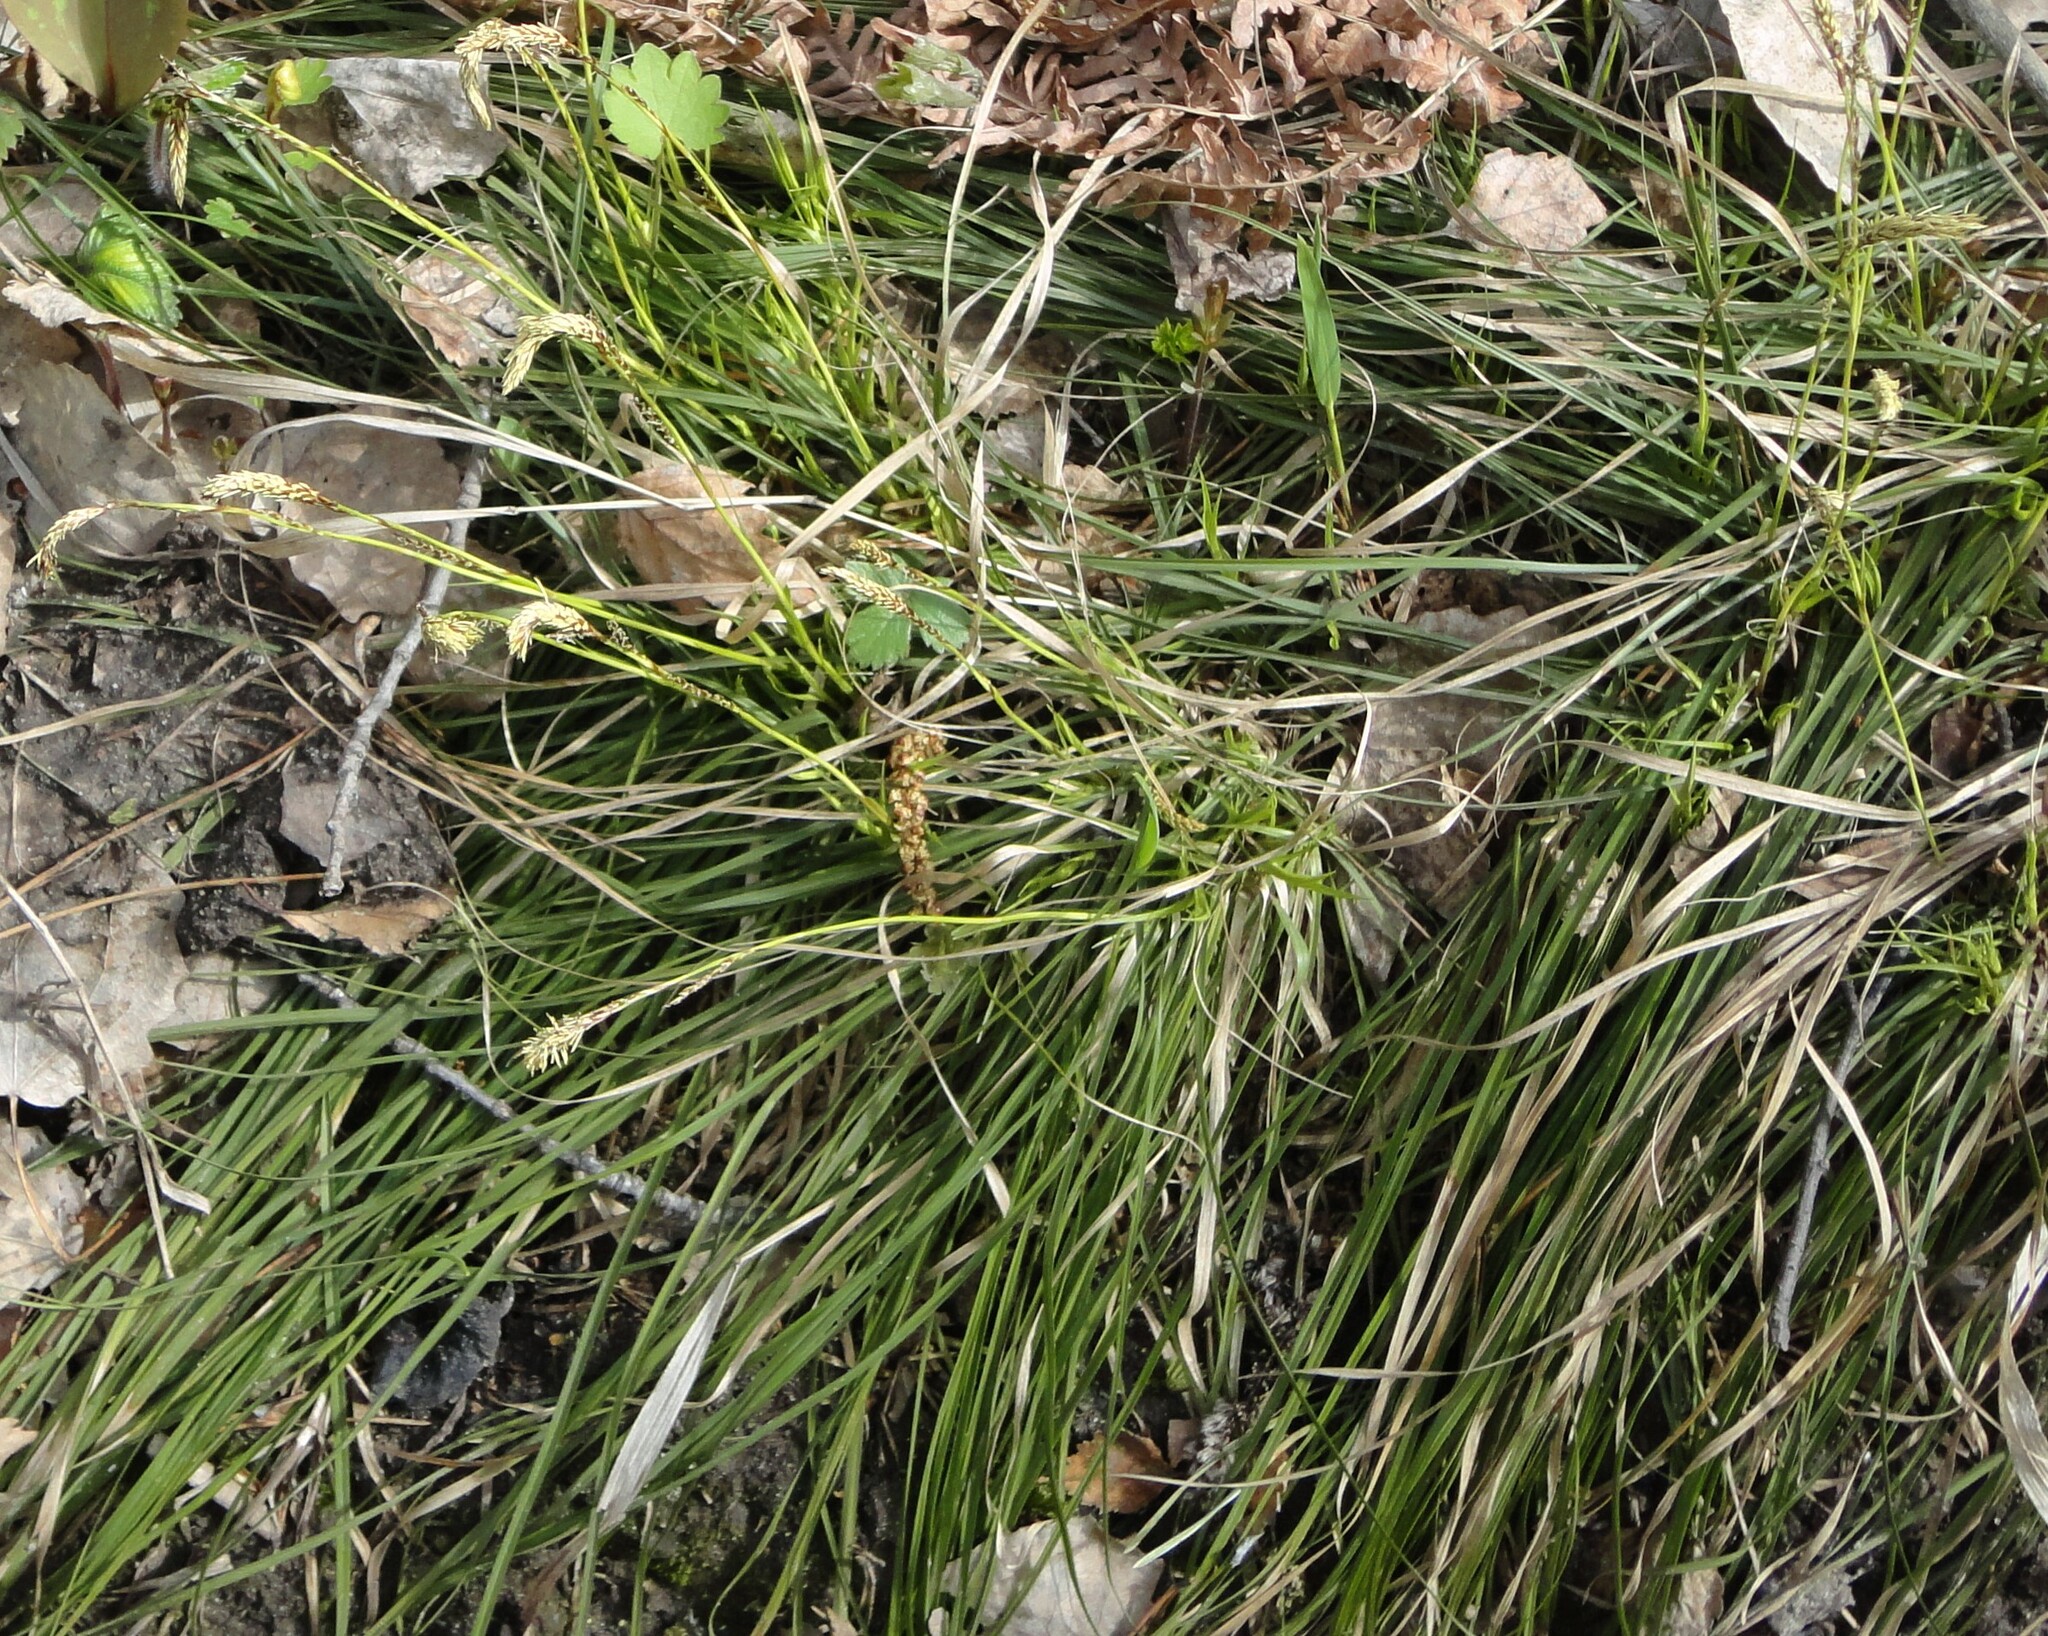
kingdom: Plantae
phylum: Tracheophyta
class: Liliopsida
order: Poales
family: Cyperaceae
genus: Carex
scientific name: Carex pediformis
